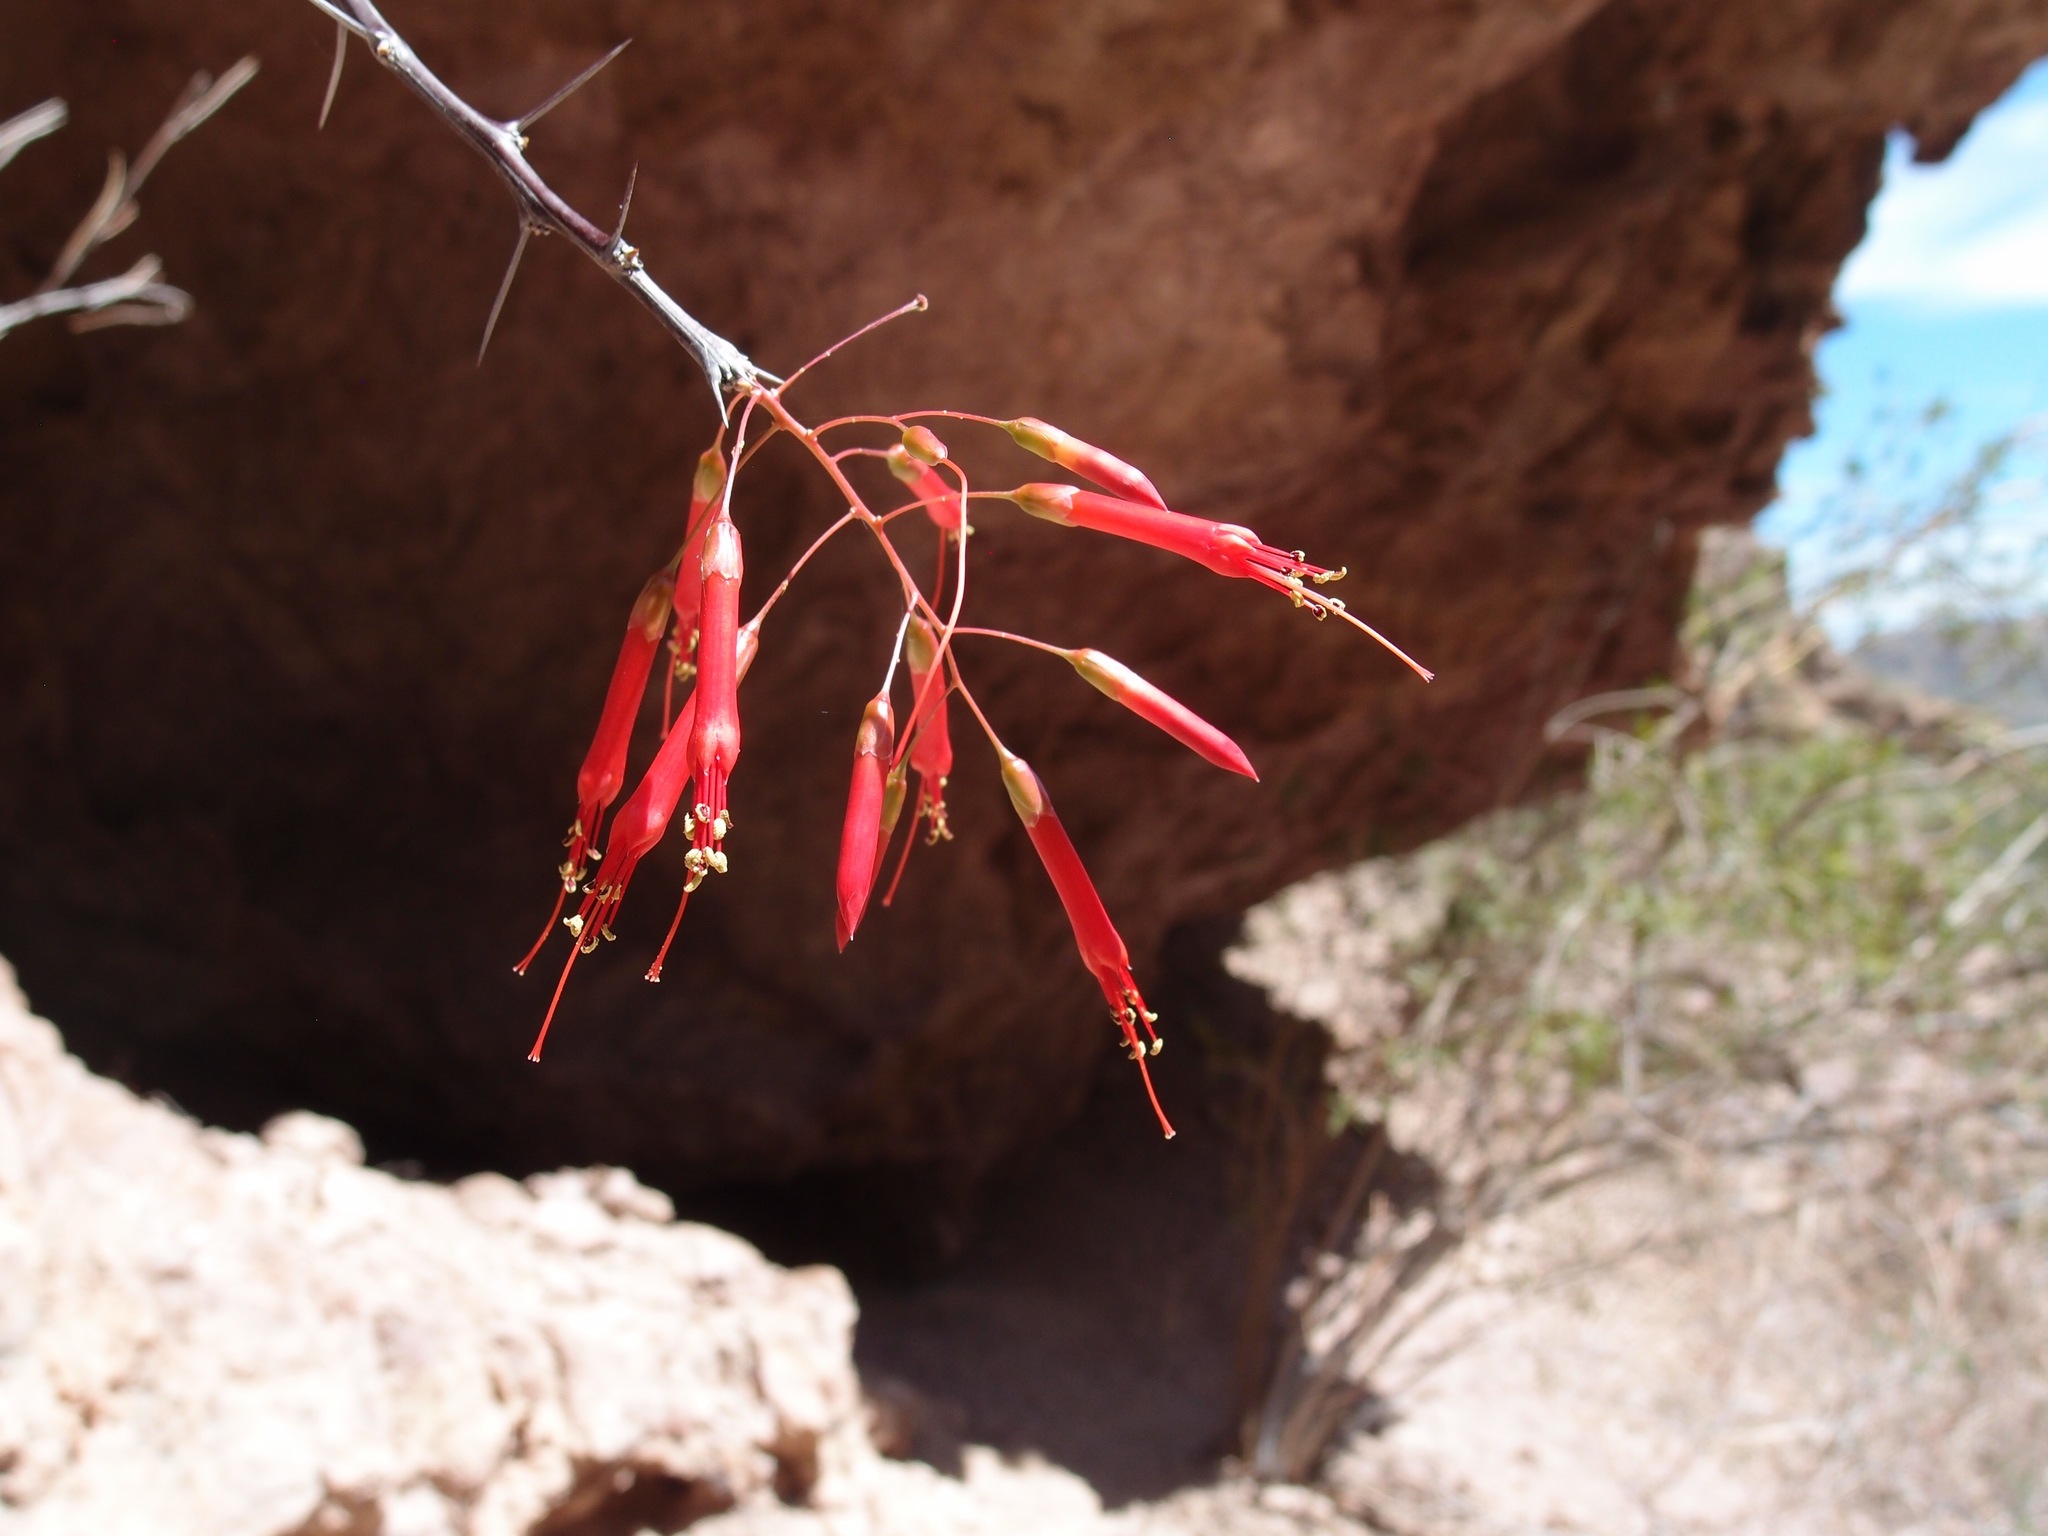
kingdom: Plantae
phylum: Tracheophyta
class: Magnoliopsida
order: Ericales
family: Fouquieriaceae
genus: Fouquieria
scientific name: Fouquieria macdougalii
